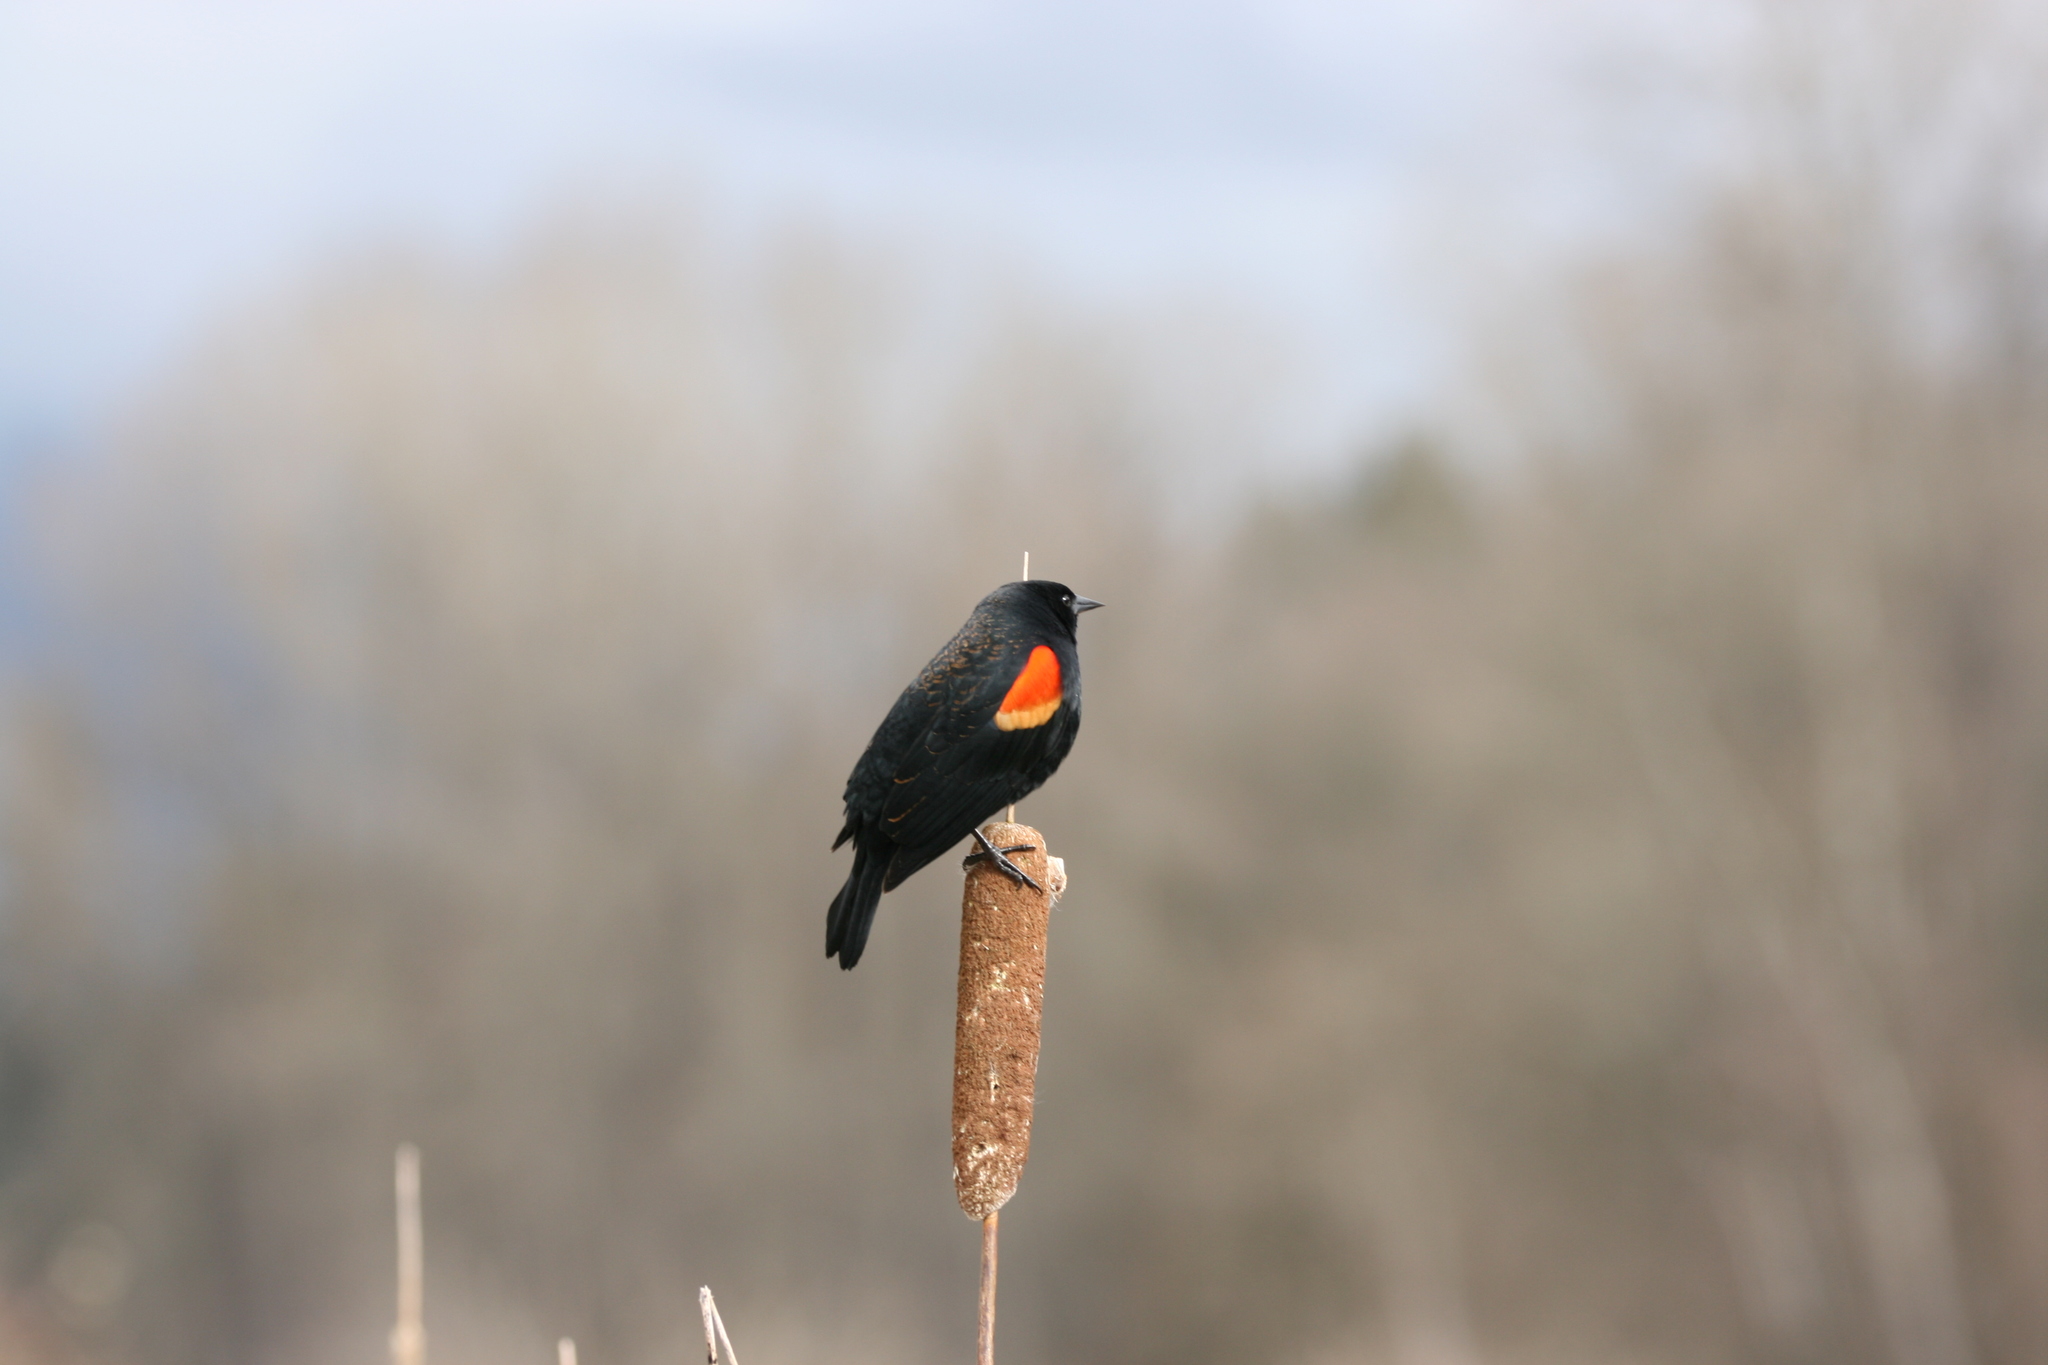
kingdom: Animalia
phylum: Chordata
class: Aves
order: Passeriformes
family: Icteridae
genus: Agelaius
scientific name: Agelaius phoeniceus
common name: Red-winged blackbird
